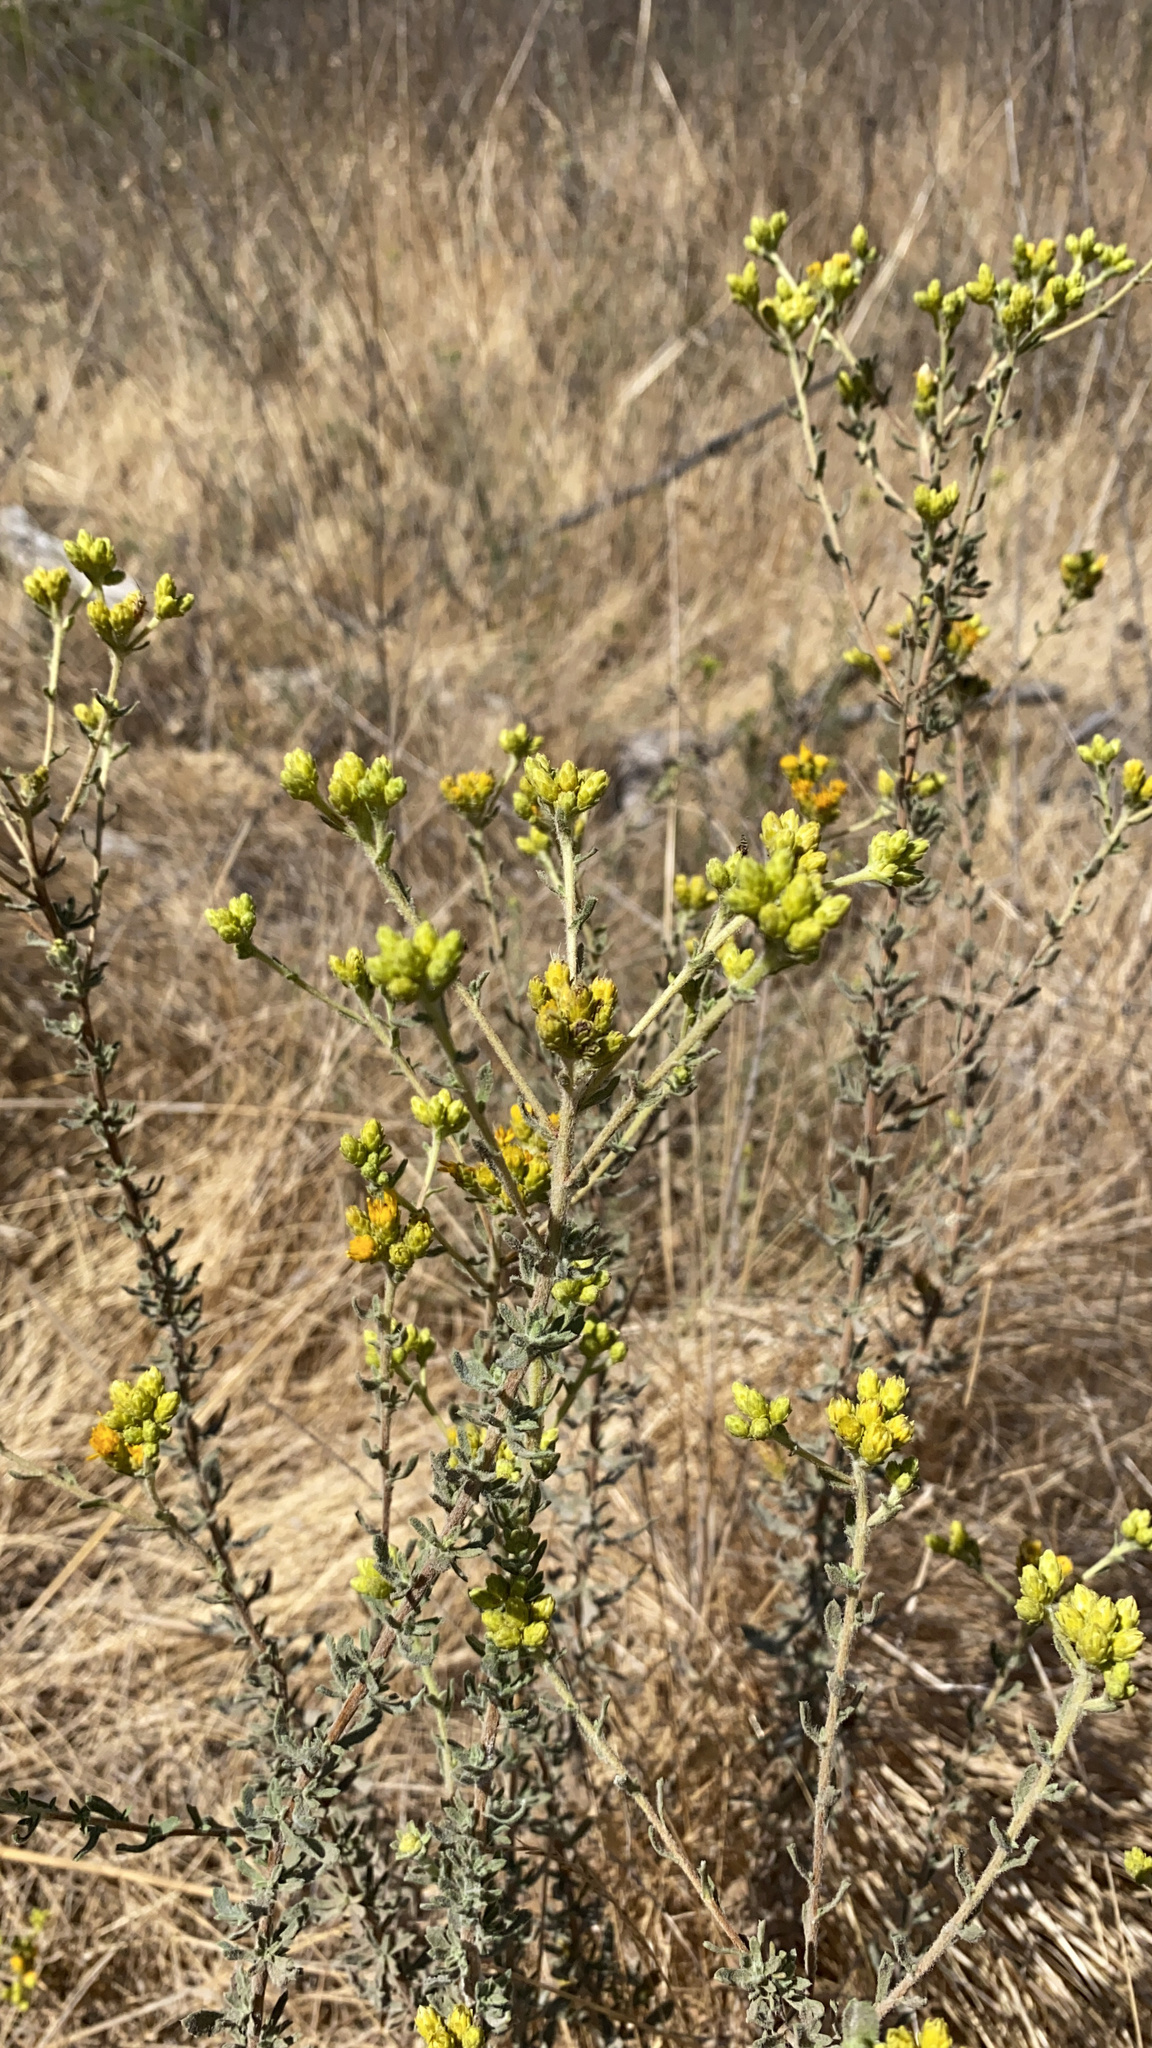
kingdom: Plantae
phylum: Tracheophyta
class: Magnoliopsida
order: Asterales
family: Asteraceae
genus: Isocoma
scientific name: Isocoma menziesii
